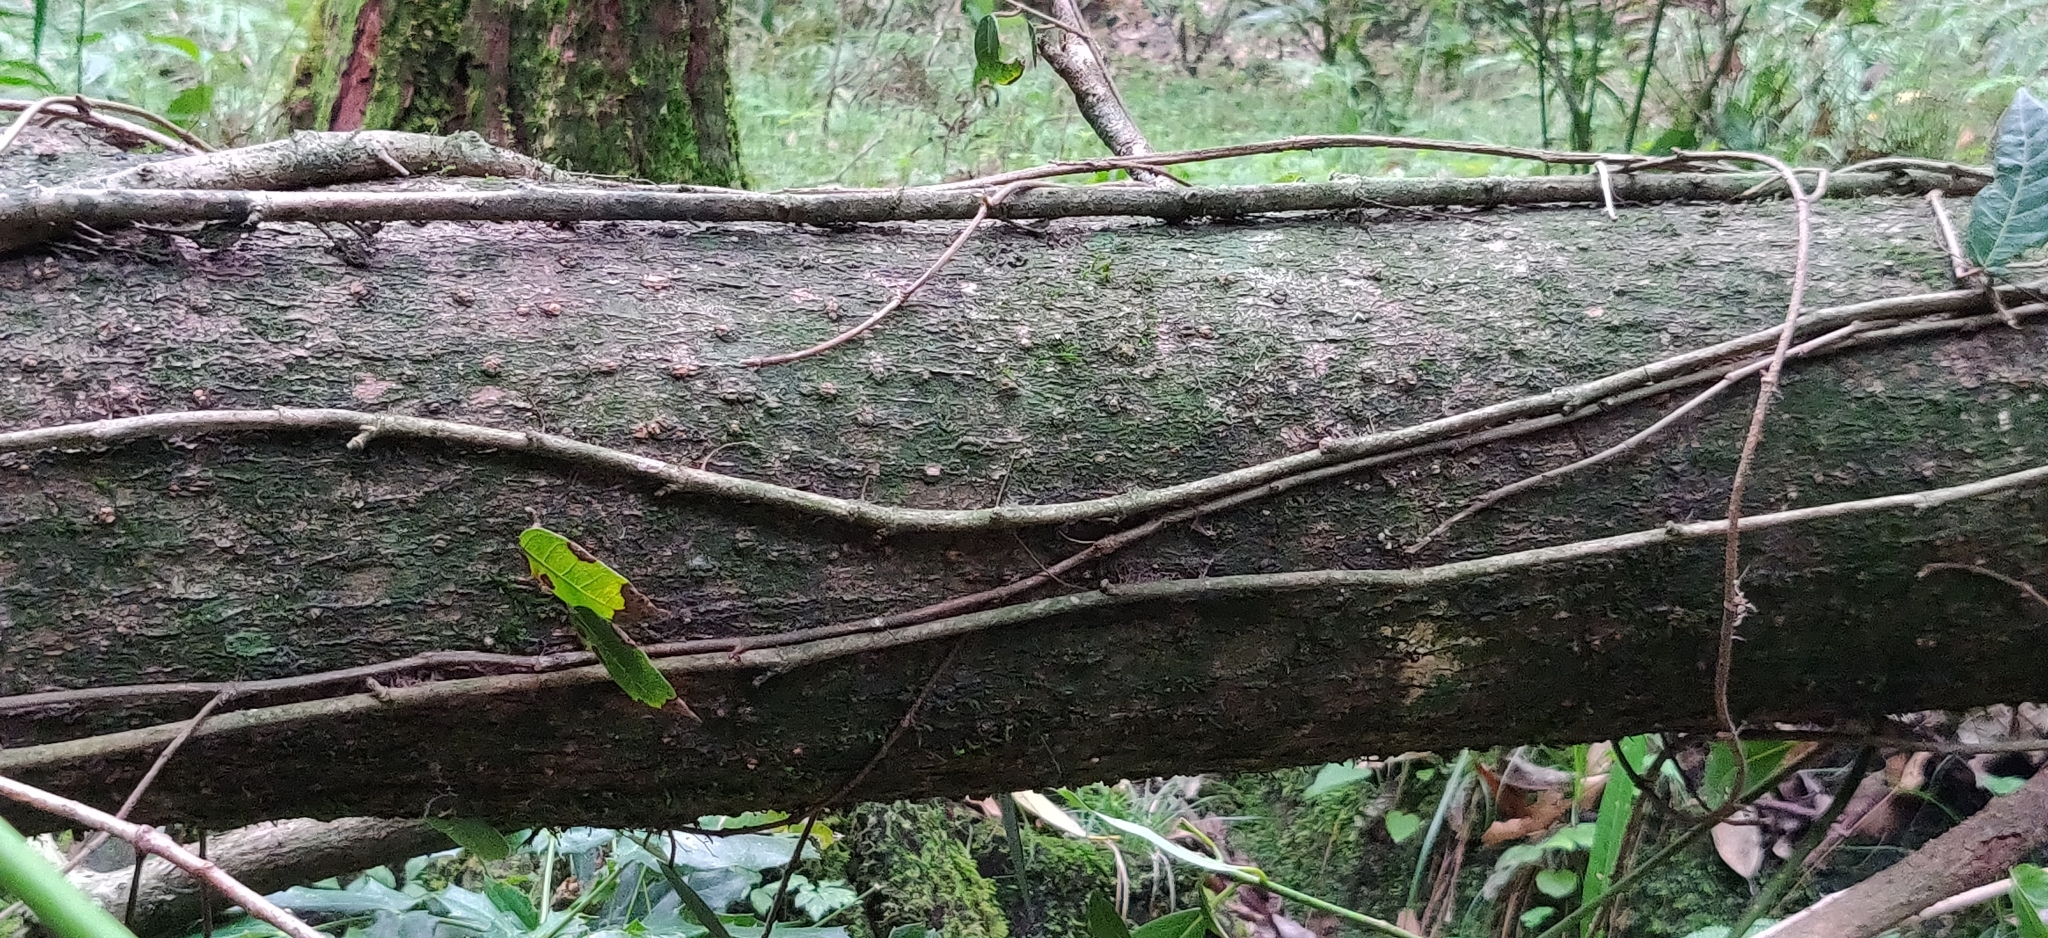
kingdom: Plantae
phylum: Tracheophyta
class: Magnoliopsida
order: Laurales
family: Lauraceae
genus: Machilus
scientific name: Machilus duthiei
